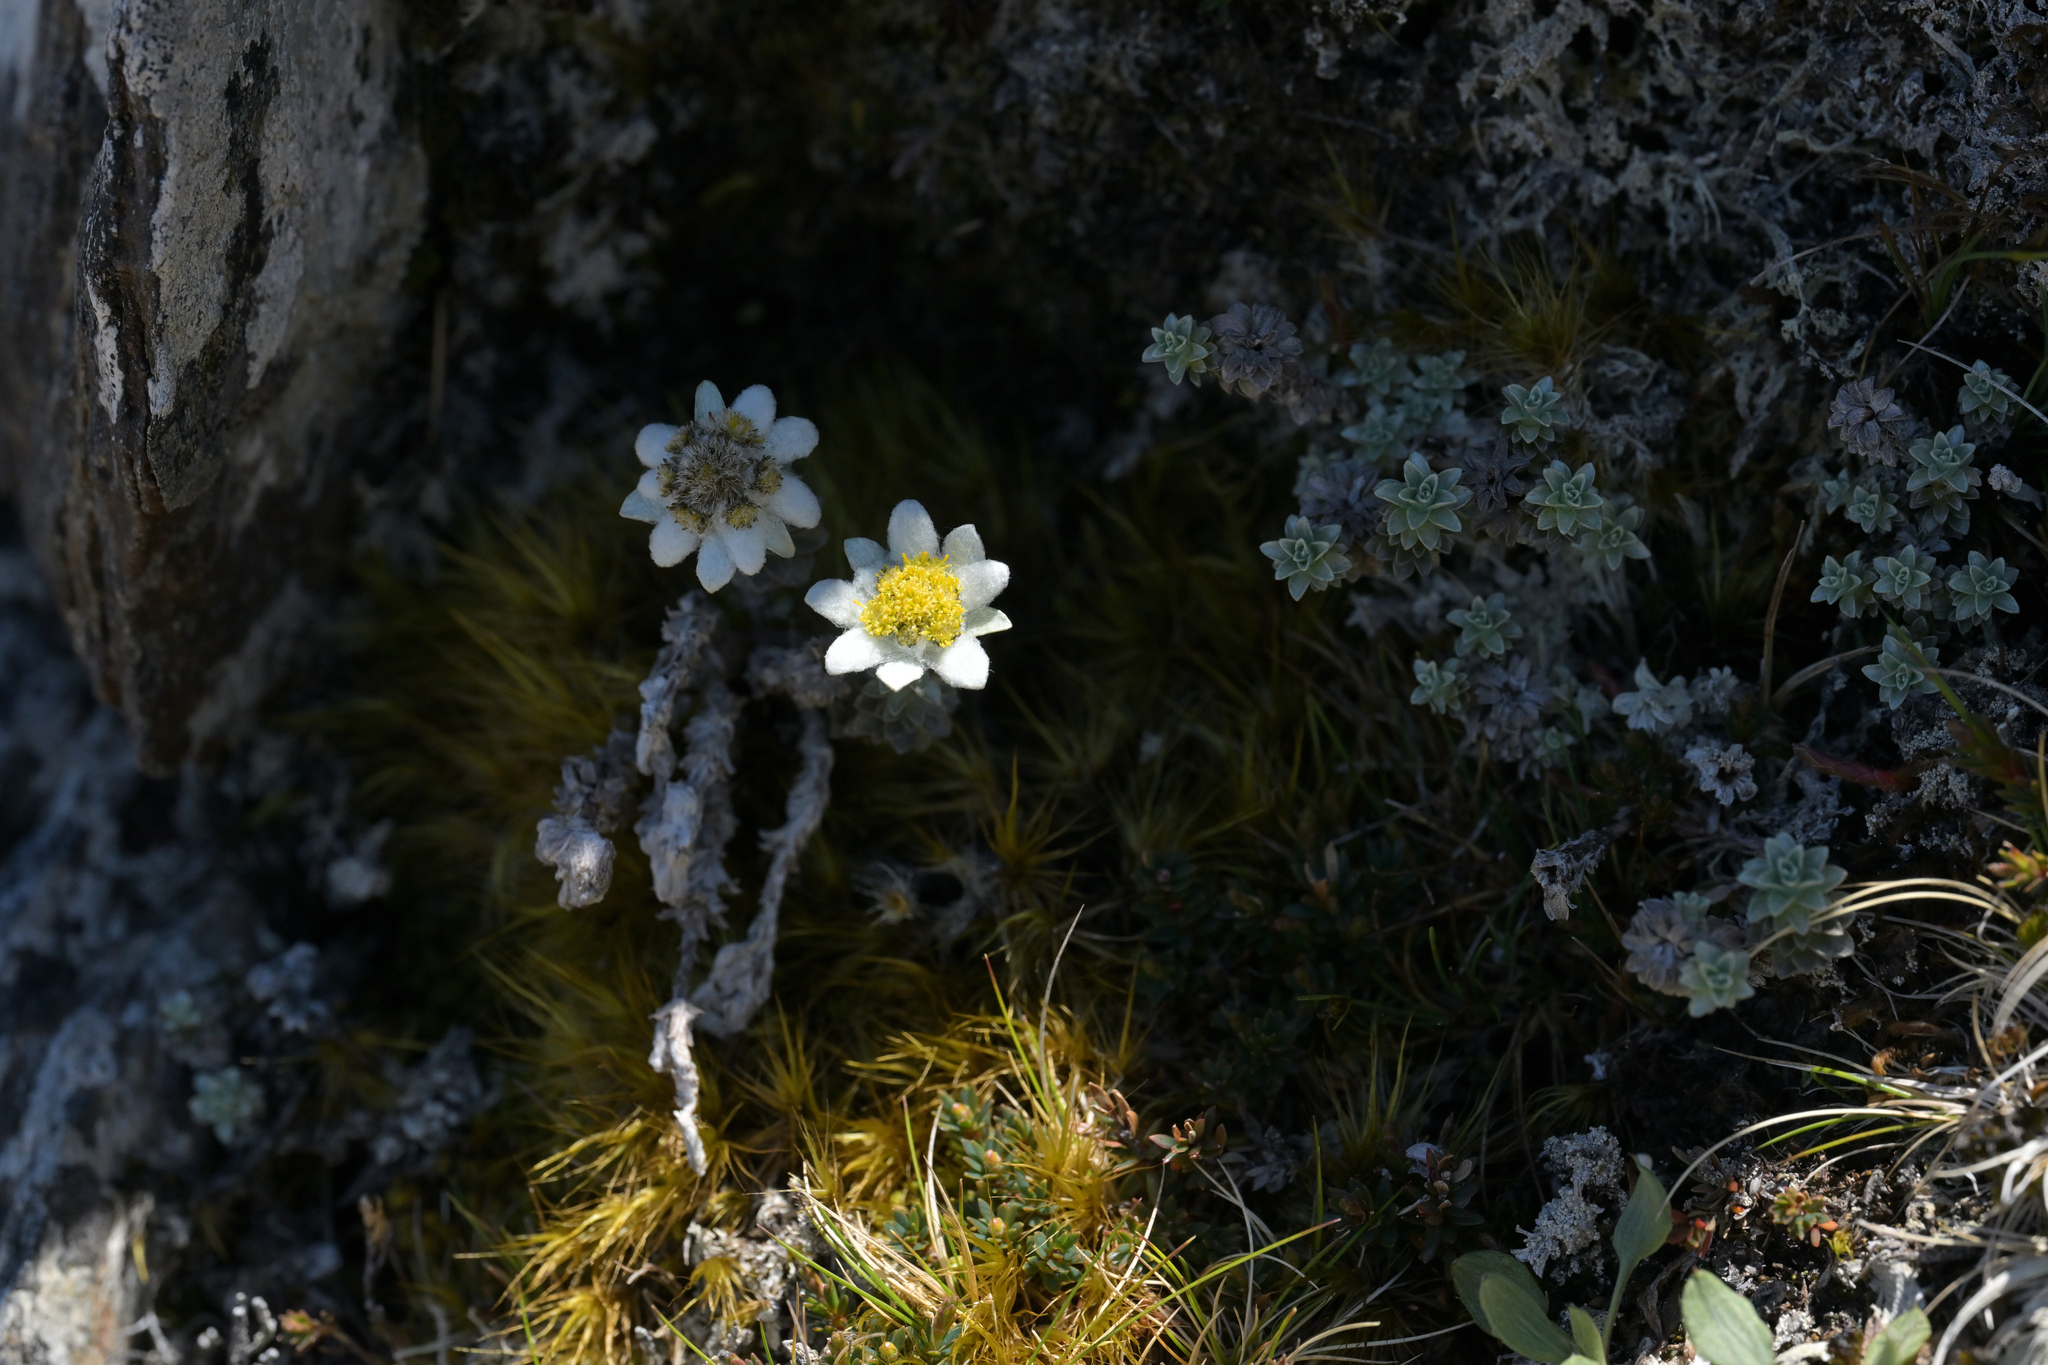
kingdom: Plantae
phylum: Tracheophyta
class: Magnoliopsida
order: Asterales
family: Asteraceae
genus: Leucogenes
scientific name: Leucogenes grandiceps
